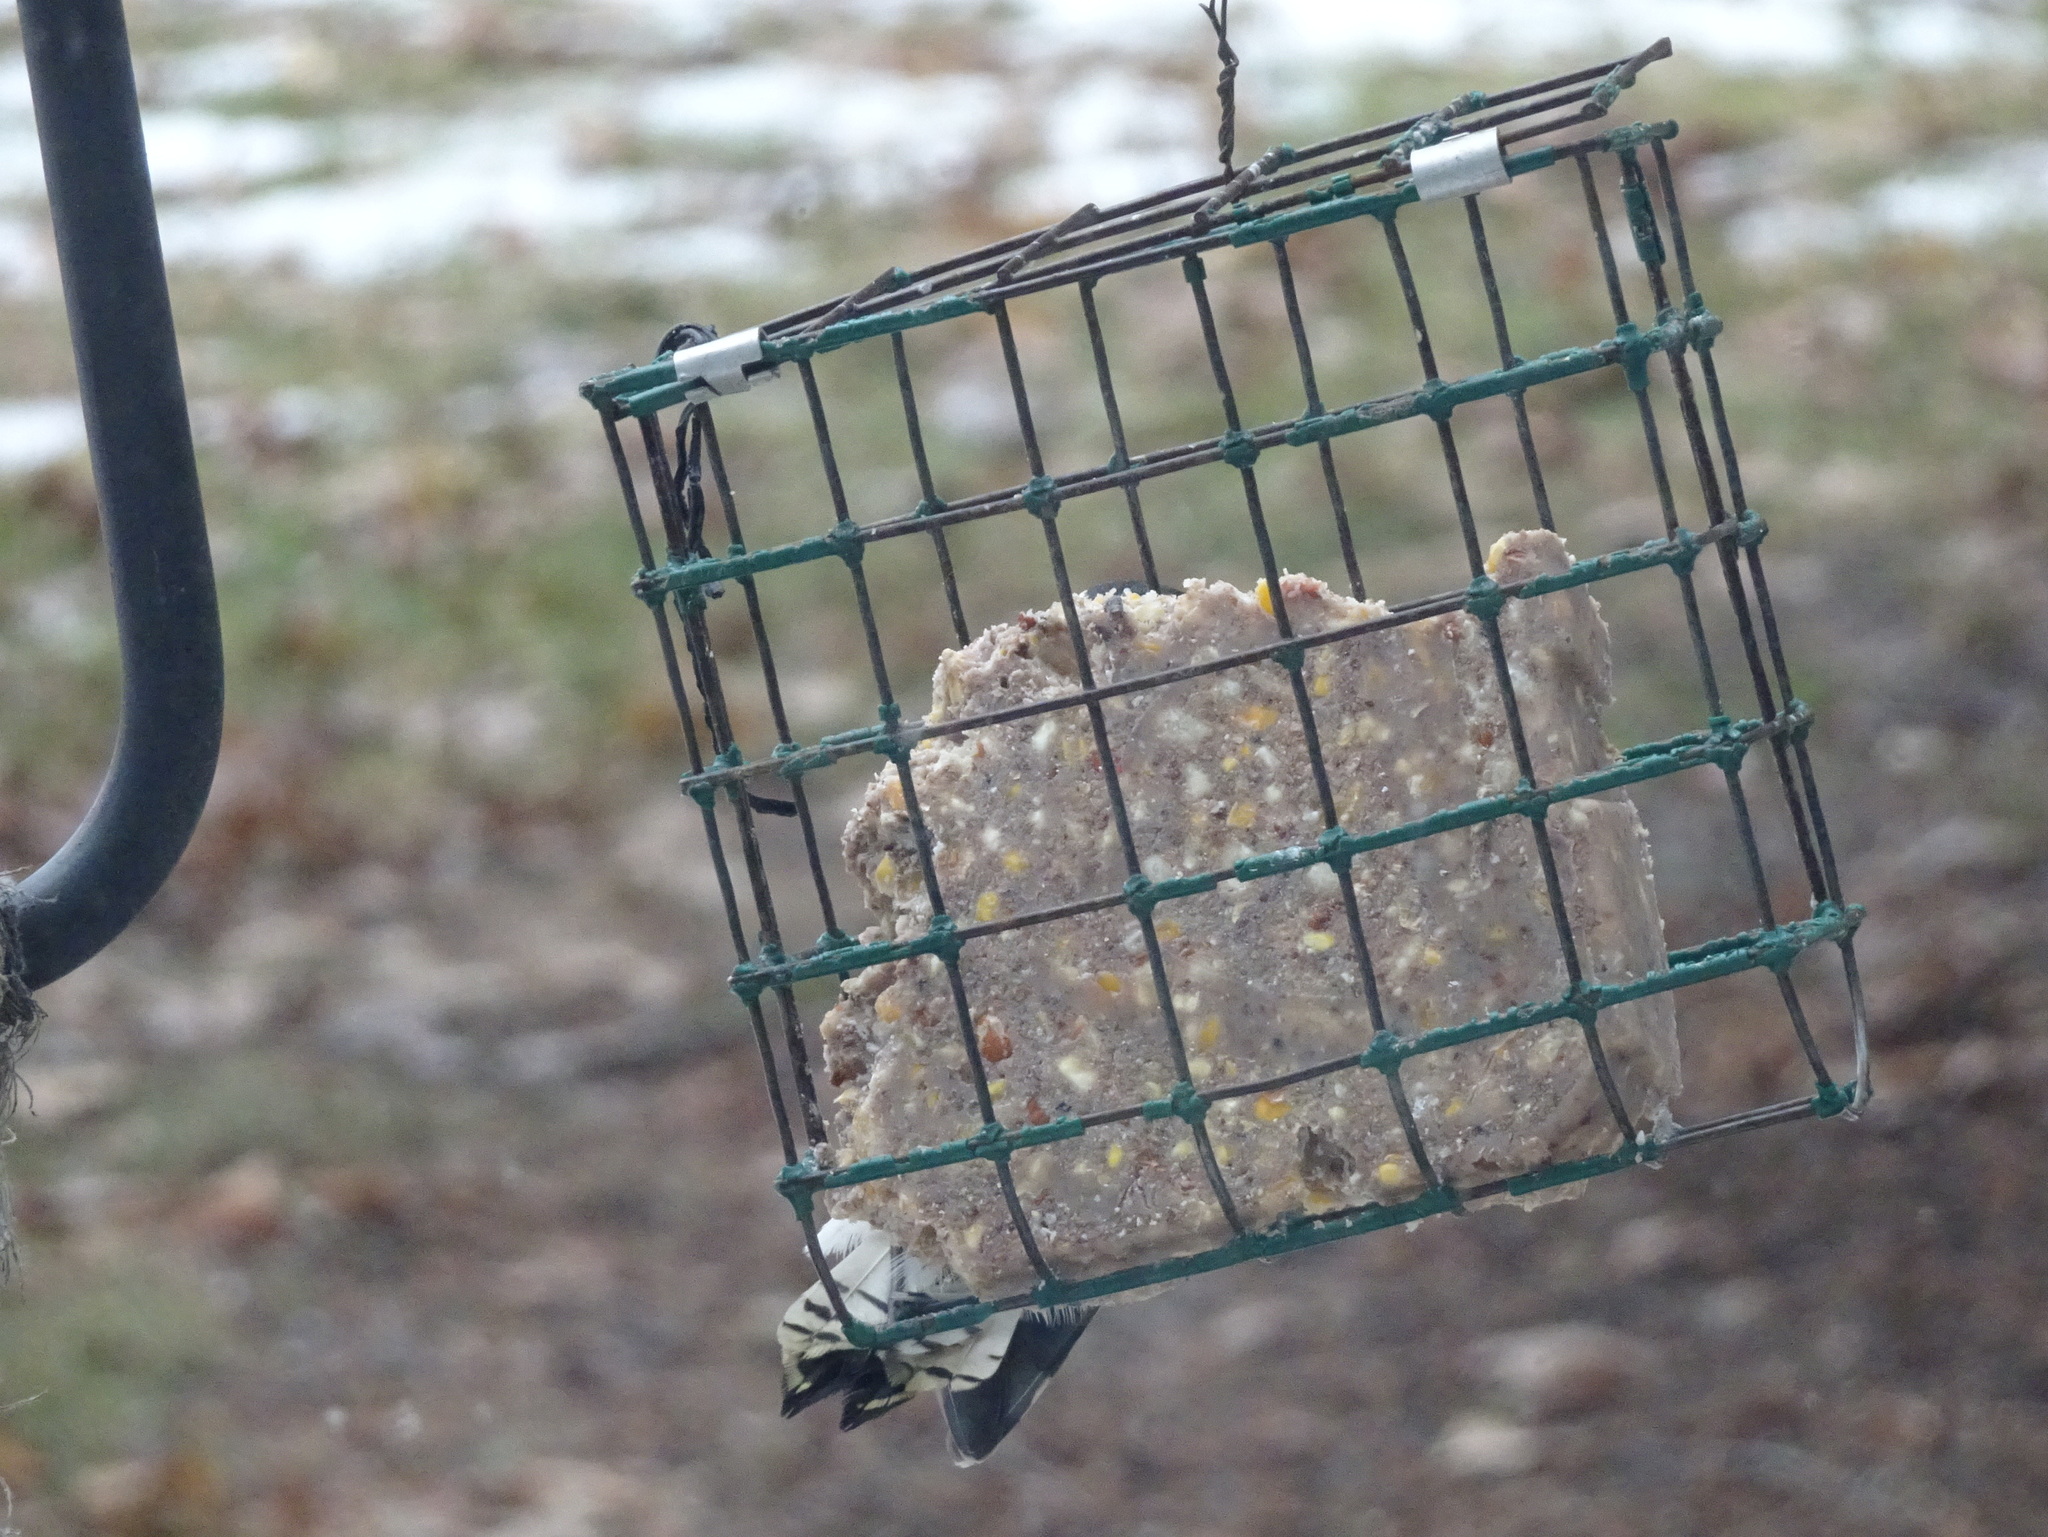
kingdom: Animalia
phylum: Chordata
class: Aves
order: Piciformes
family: Picidae
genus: Dryobates
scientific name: Dryobates pubescens
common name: Downy woodpecker
